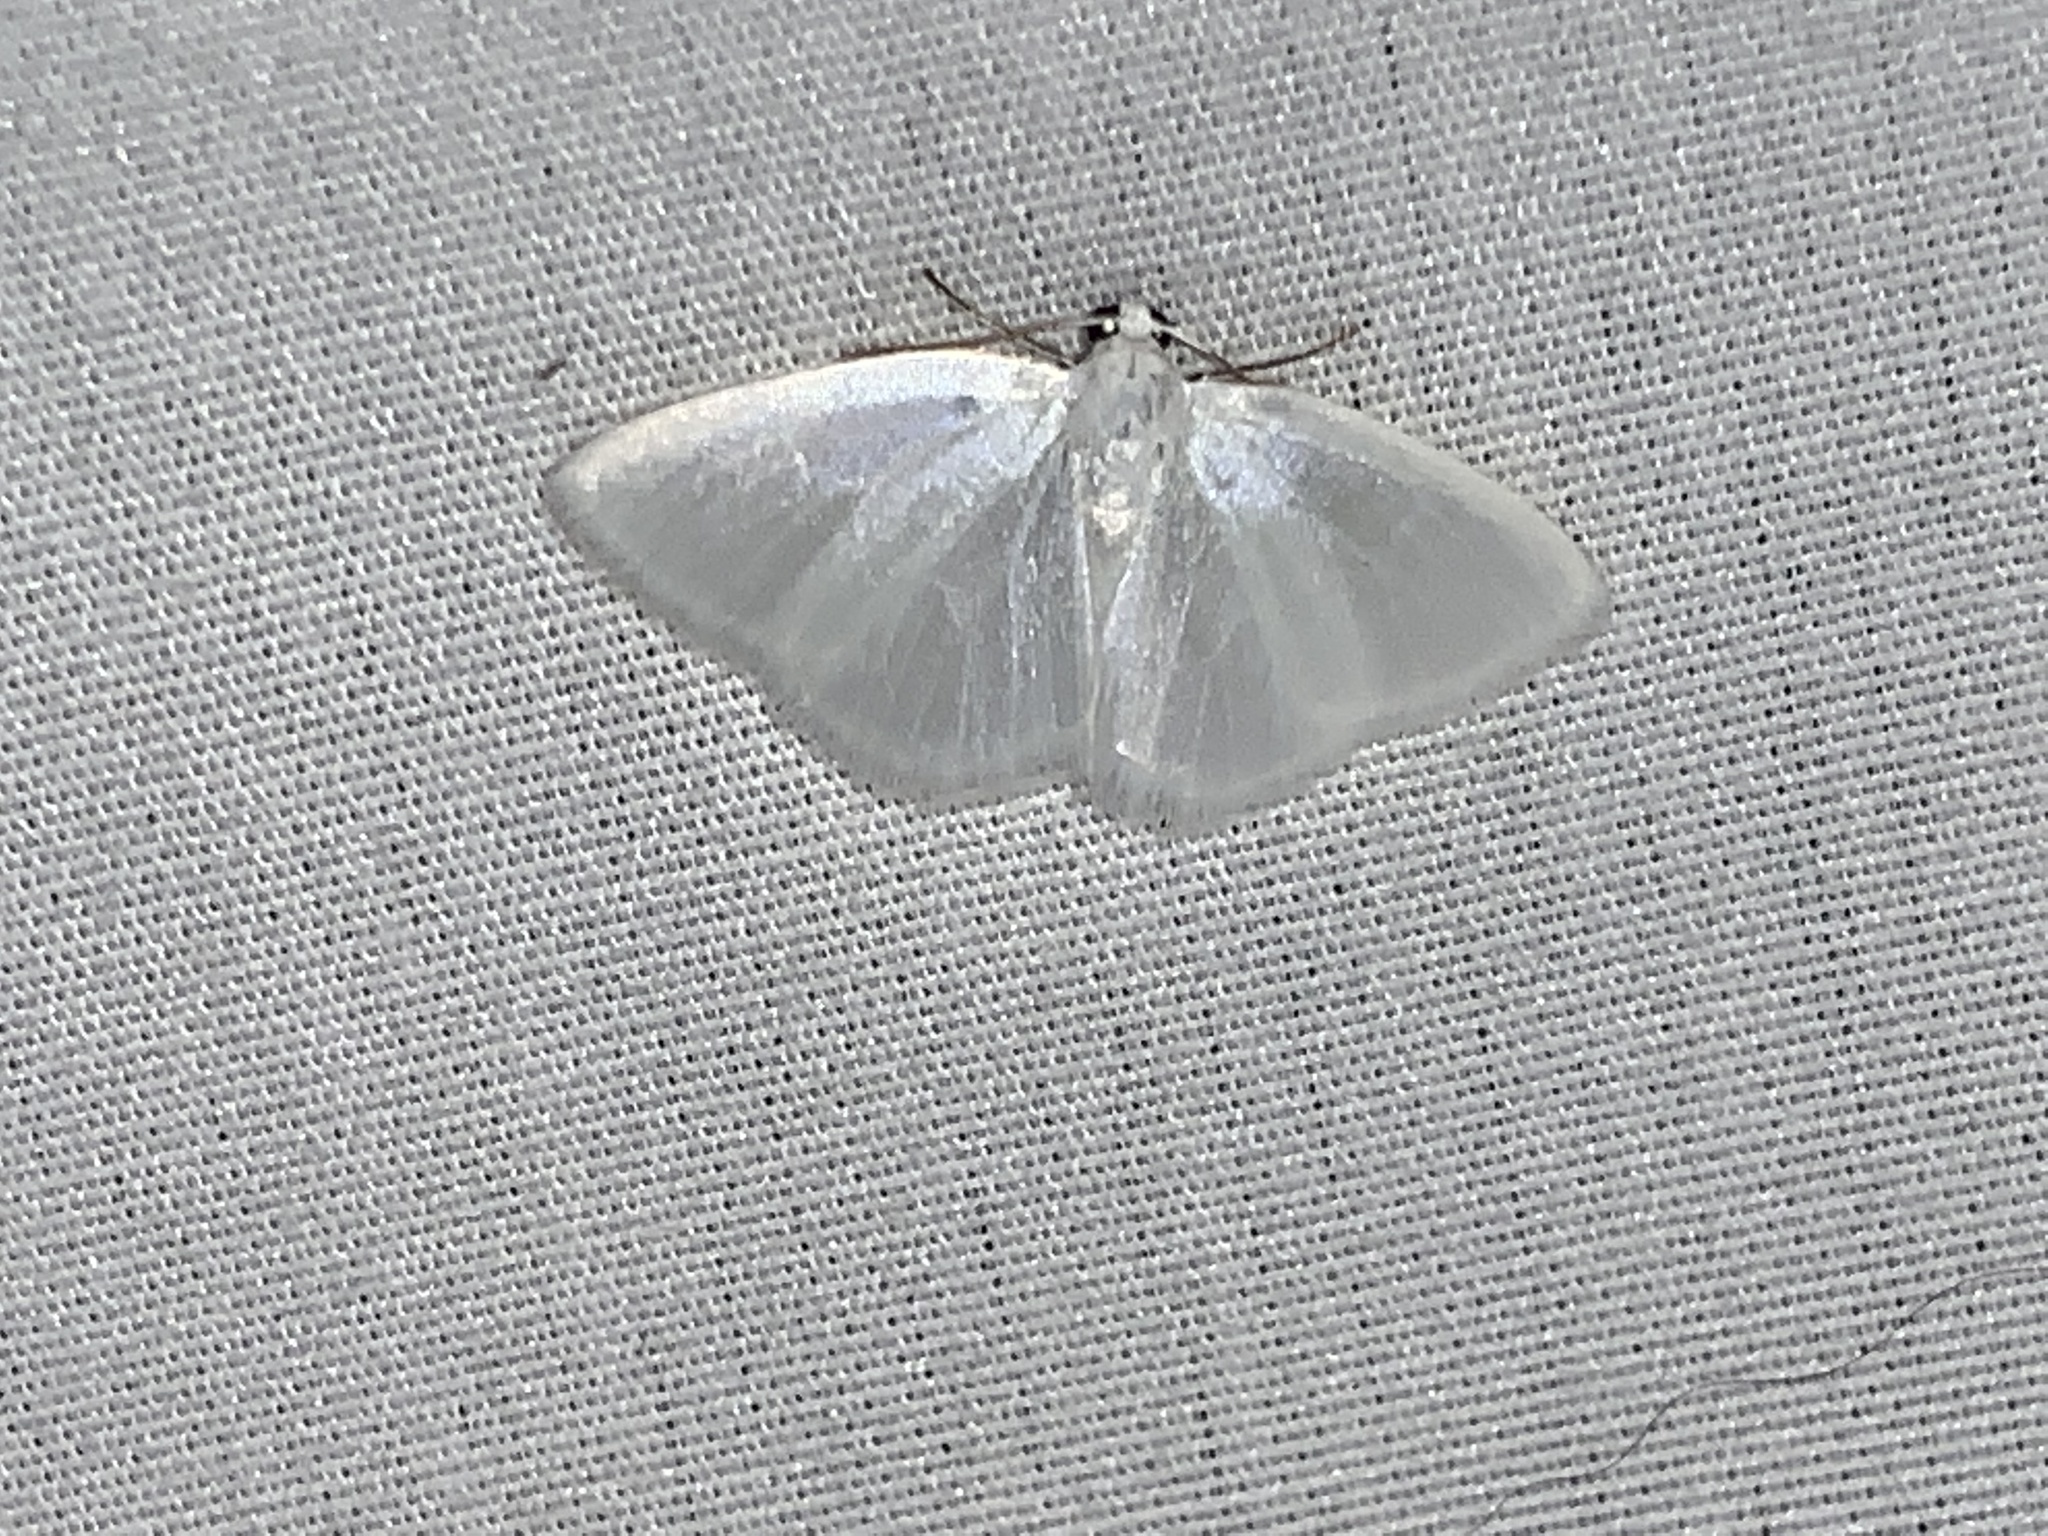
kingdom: Animalia
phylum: Arthropoda
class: Insecta
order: Lepidoptera
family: Geometridae
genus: Lomographa
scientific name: Lomographa vestaliata
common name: White spring moth
